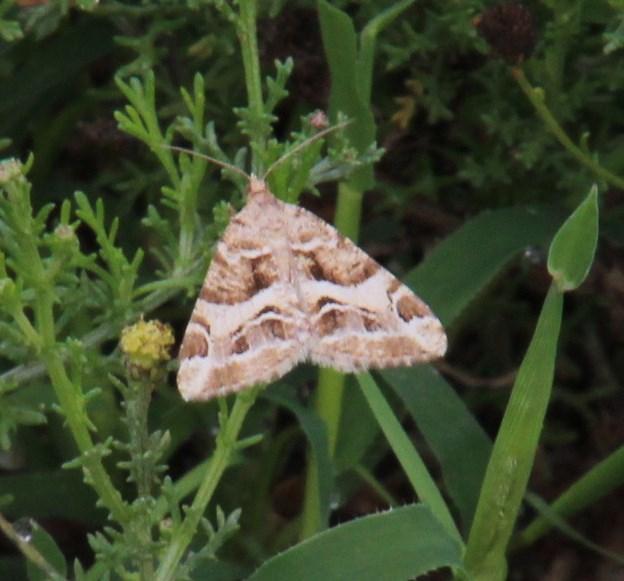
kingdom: Animalia
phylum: Arthropoda
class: Insecta
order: Lepidoptera
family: Geometridae
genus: Chiasmia
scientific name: Chiasmia inaequilinea
